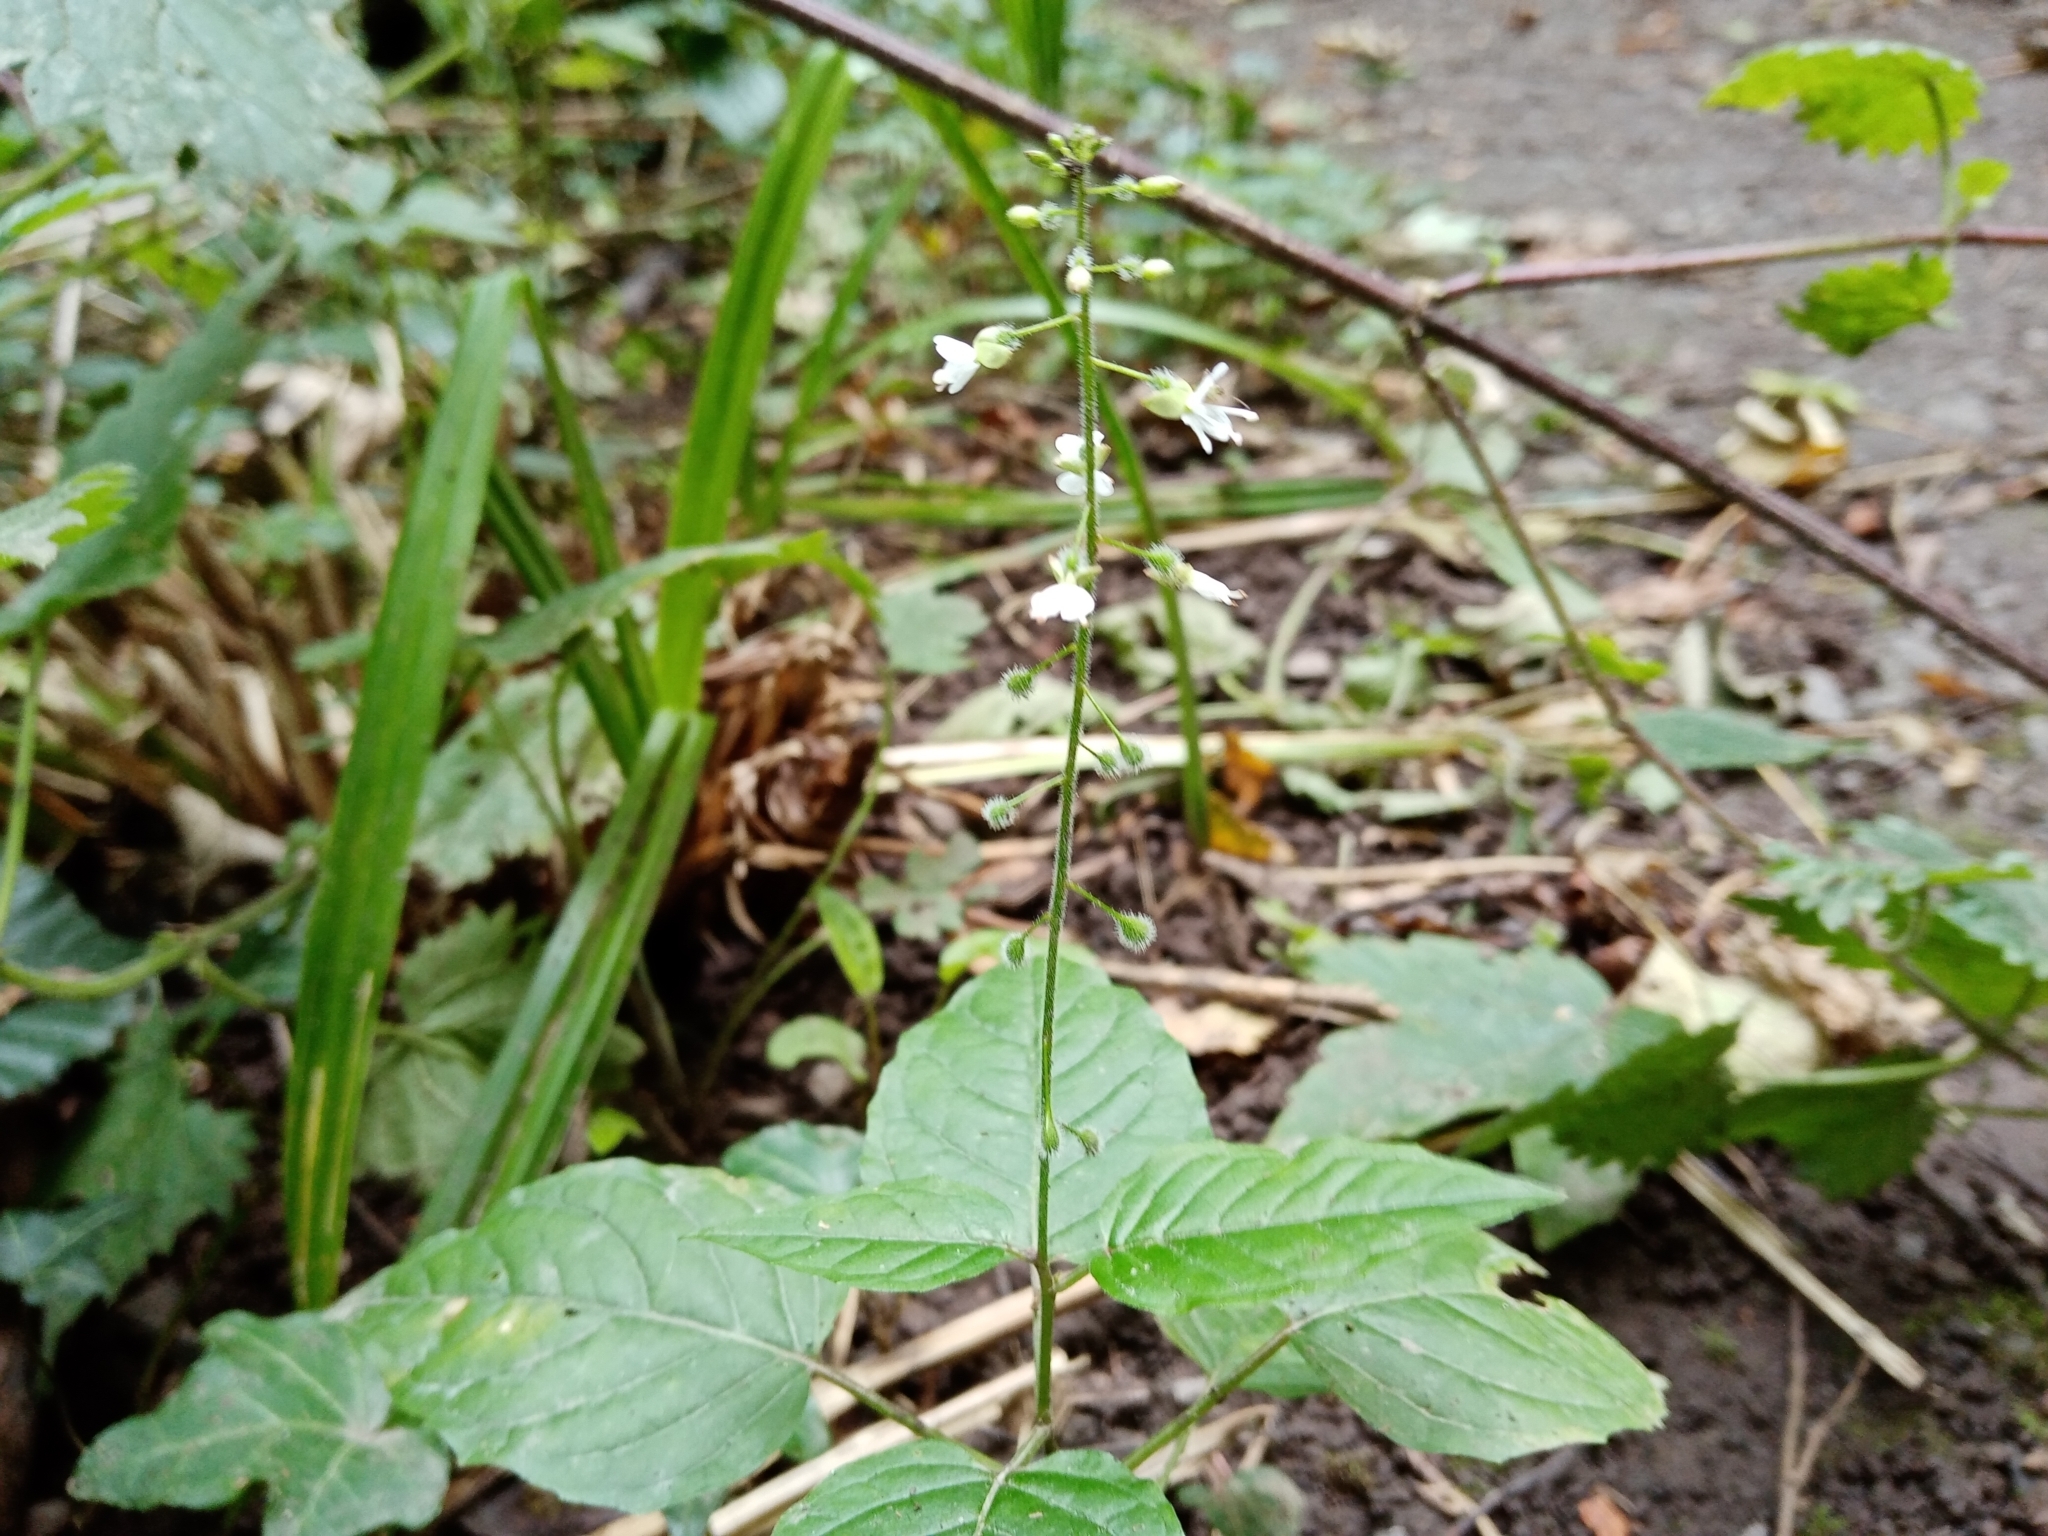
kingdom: Plantae
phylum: Tracheophyta
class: Magnoliopsida
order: Myrtales
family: Onagraceae
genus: Circaea
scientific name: Circaea lutetiana
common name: Enchanter's-nightshade
